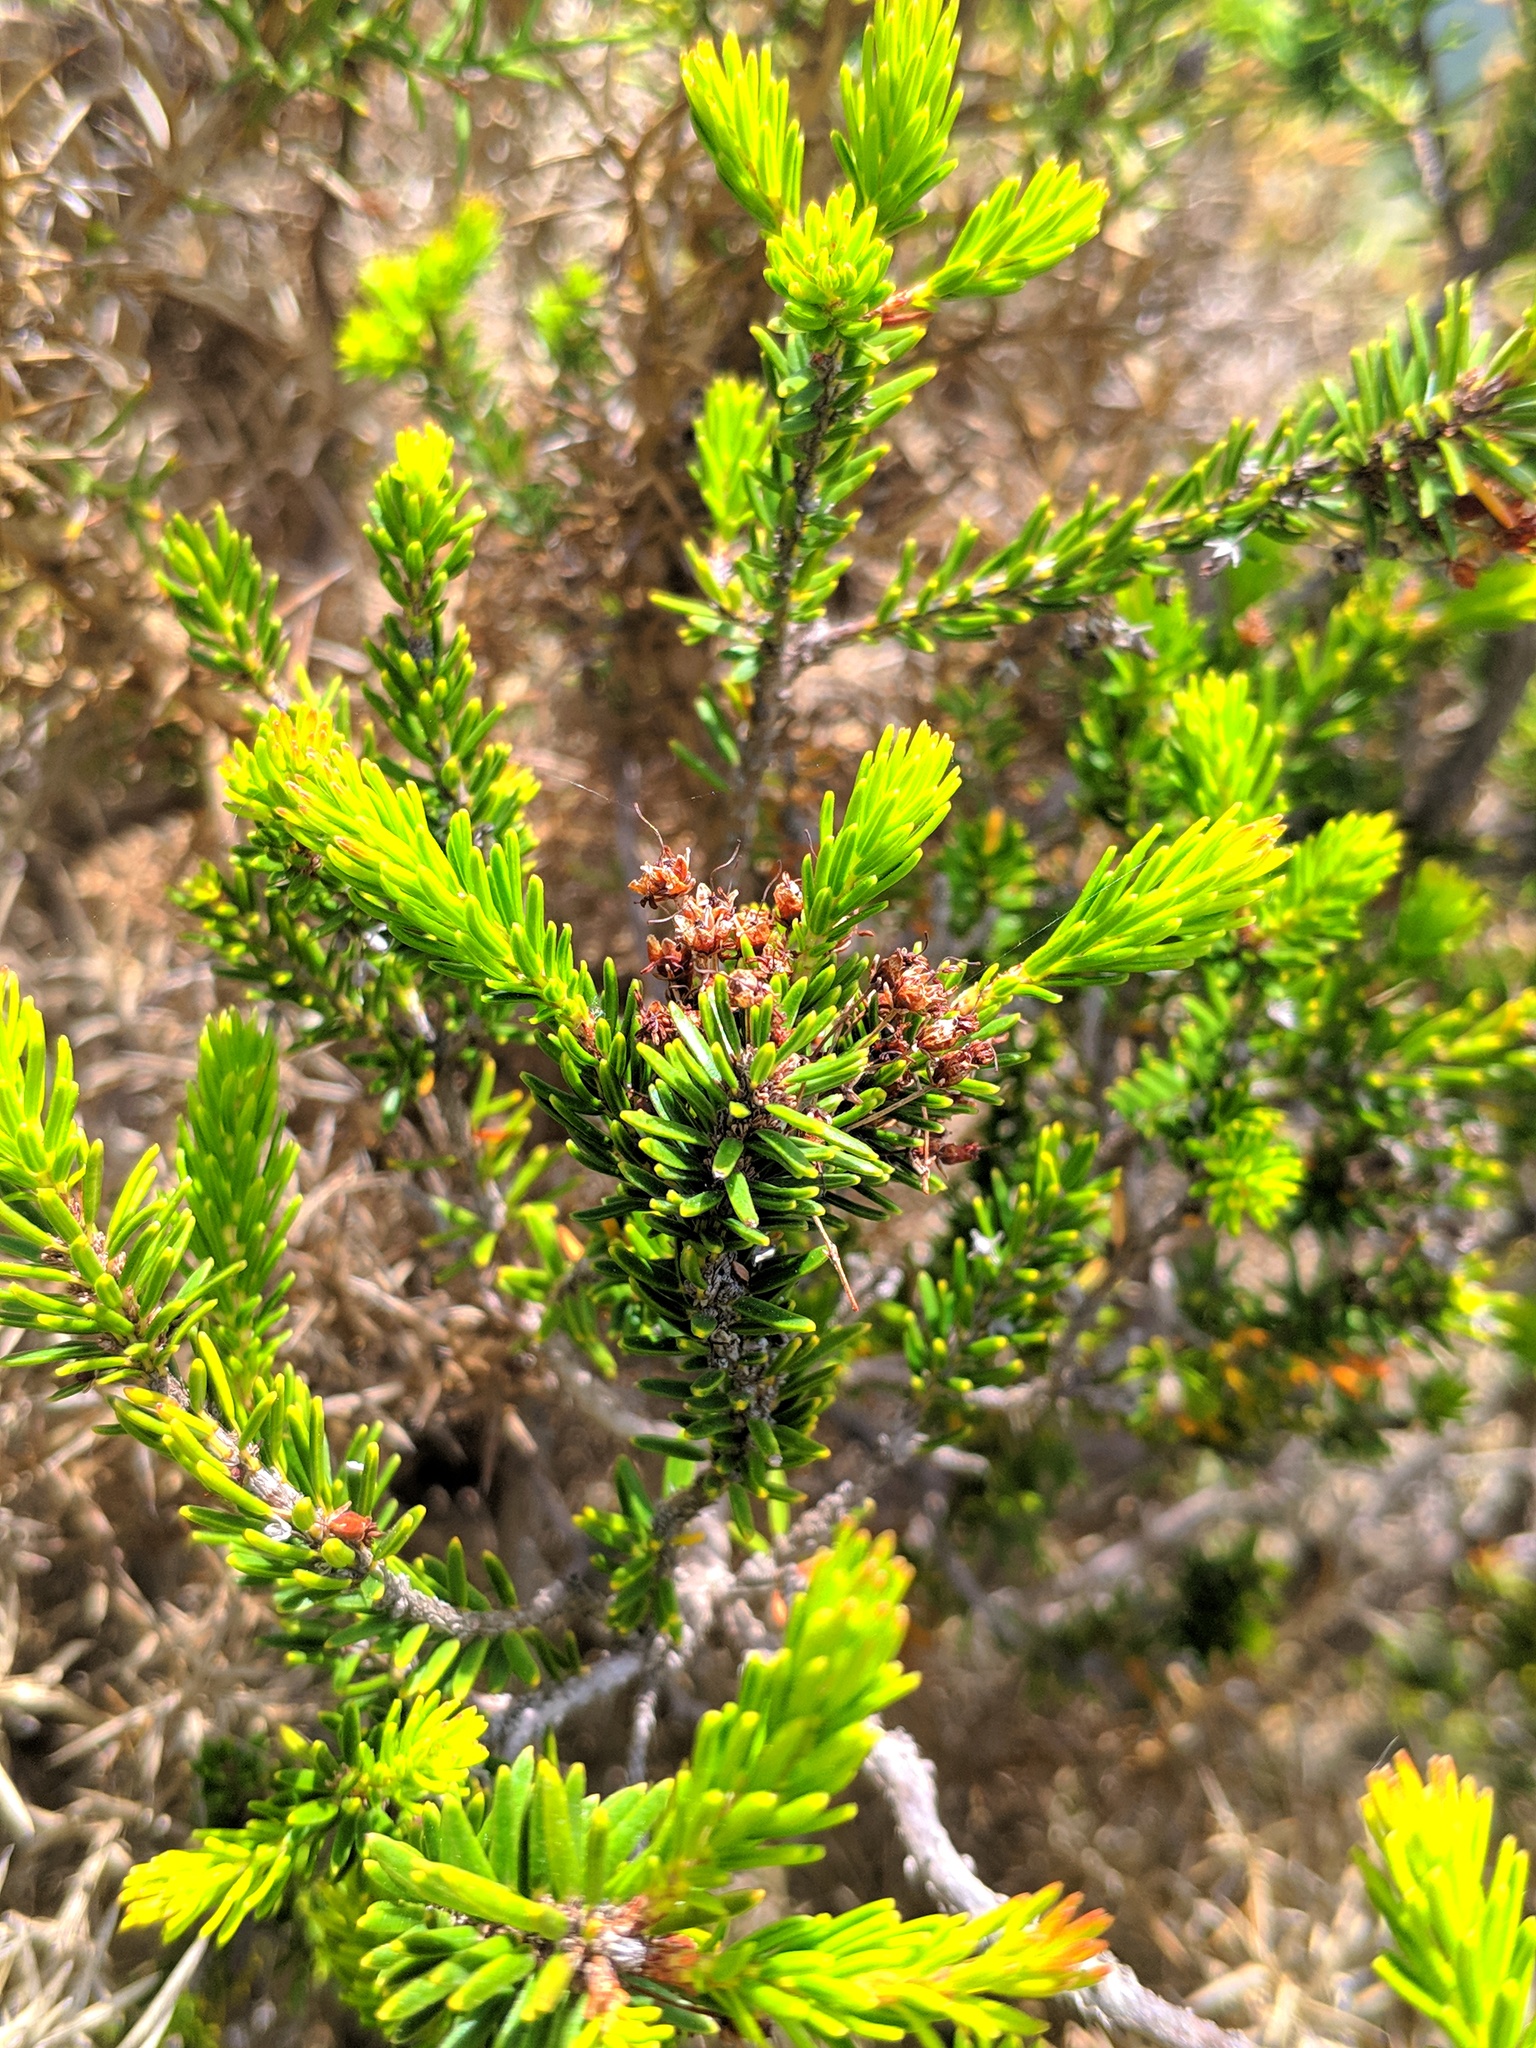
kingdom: Plantae
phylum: Tracheophyta
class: Magnoliopsida
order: Ericales
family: Ericaceae
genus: Erica
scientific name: Erica multiflora
